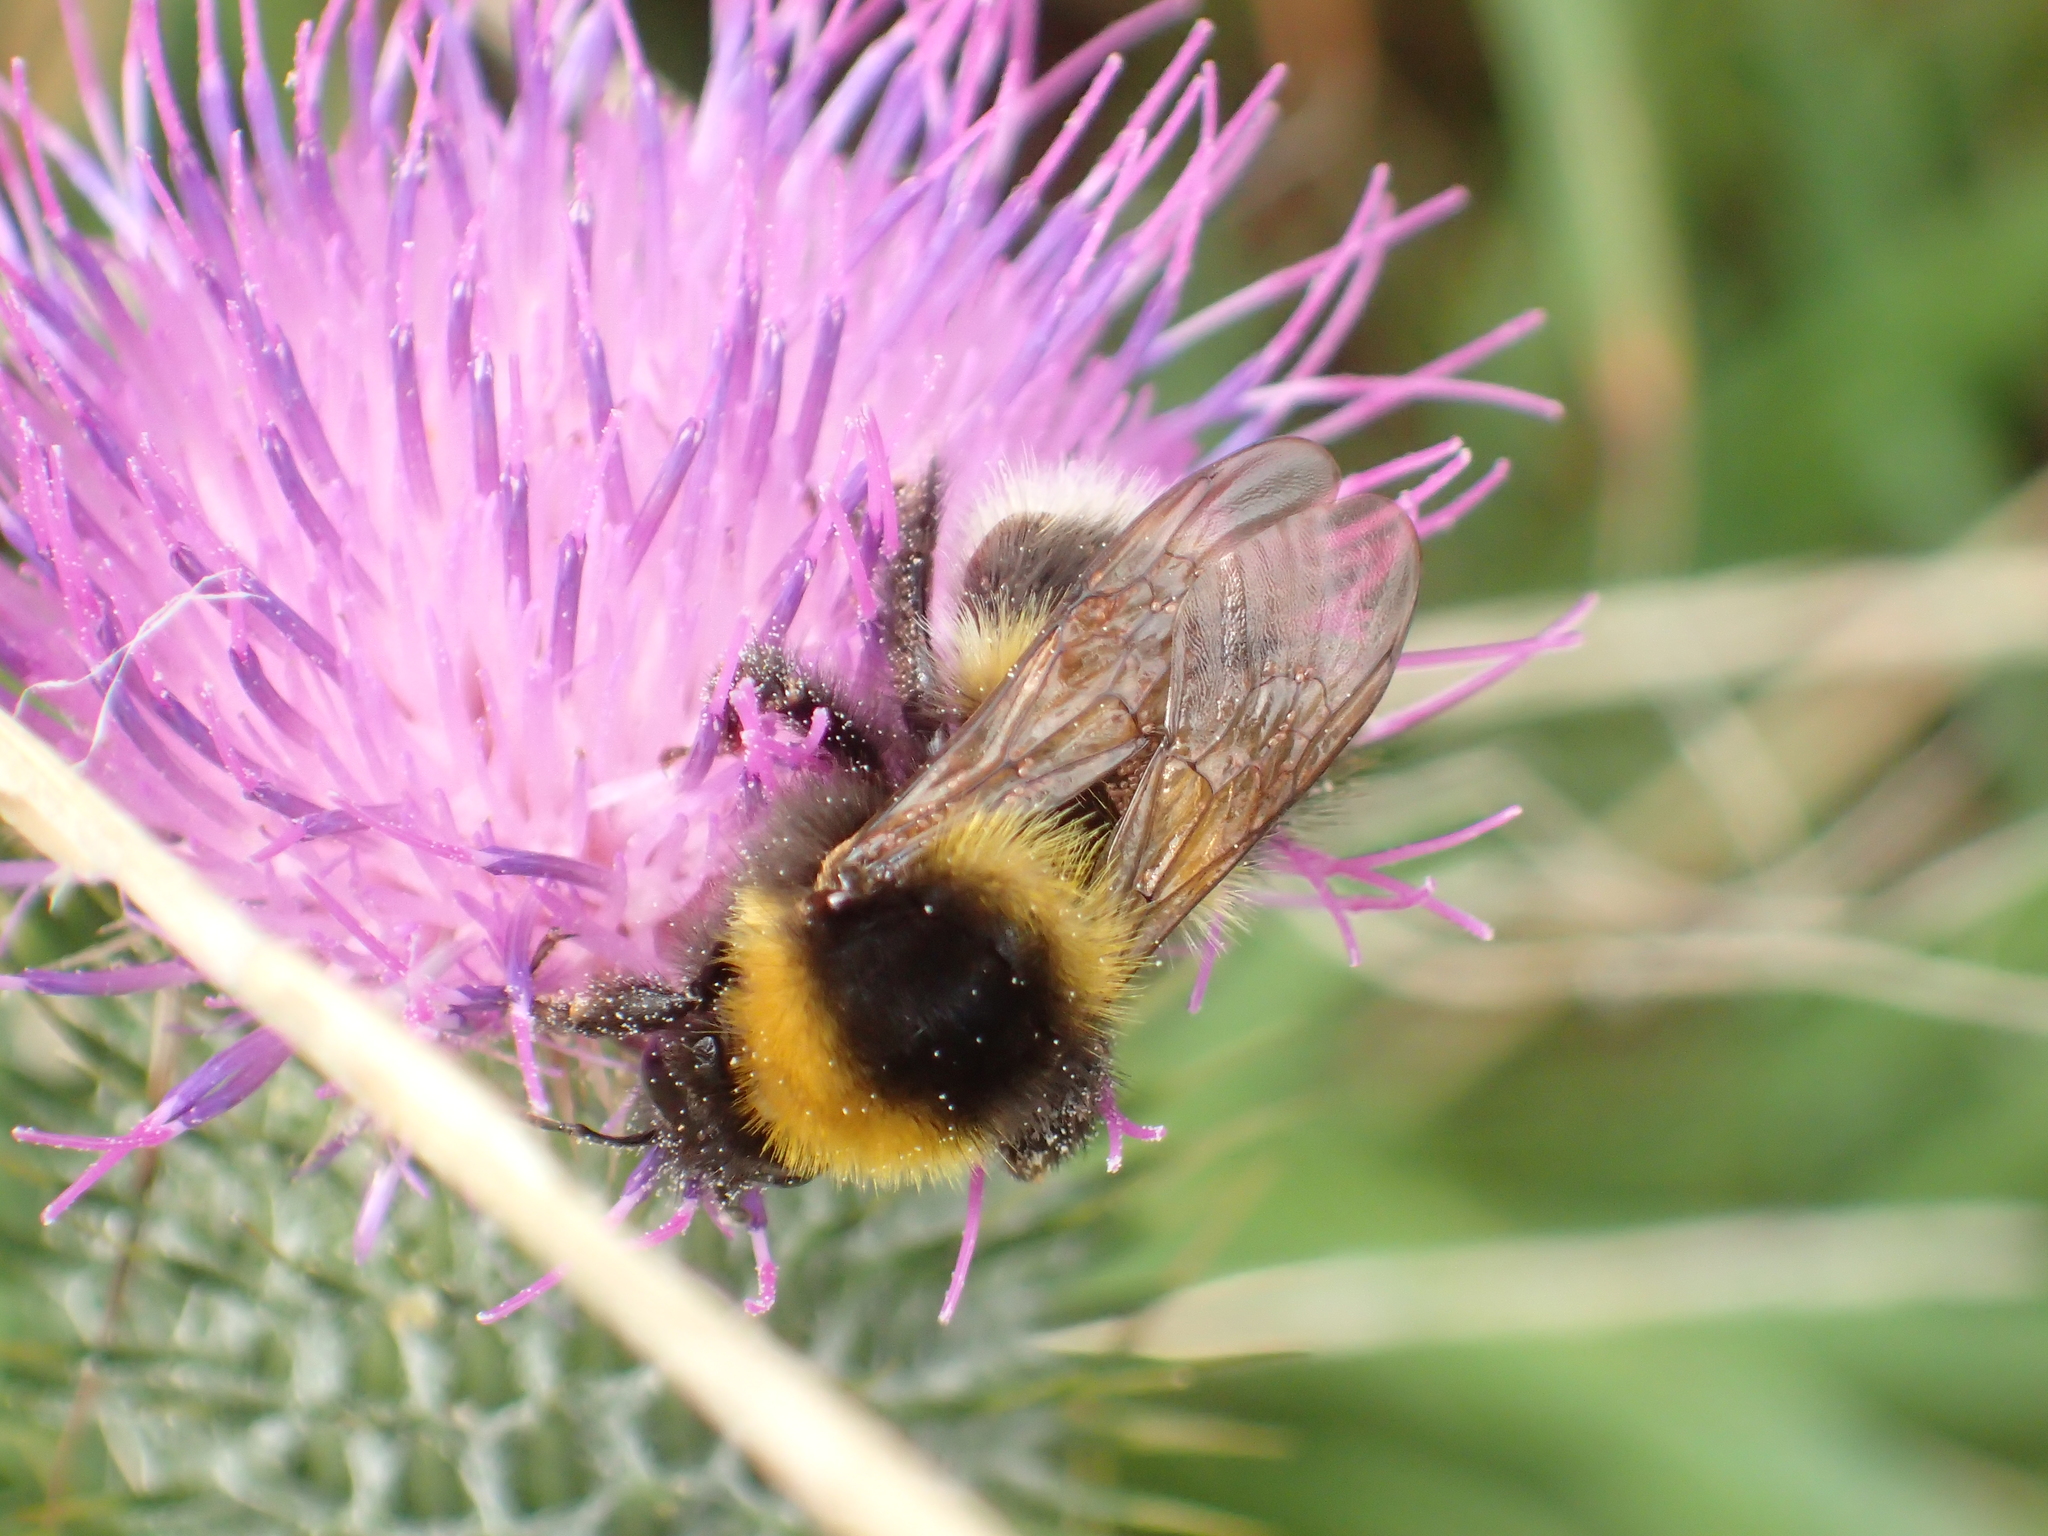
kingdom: Animalia
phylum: Arthropoda
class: Insecta
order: Hymenoptera
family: Apidae
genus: Megabombus
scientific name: Megabombus
